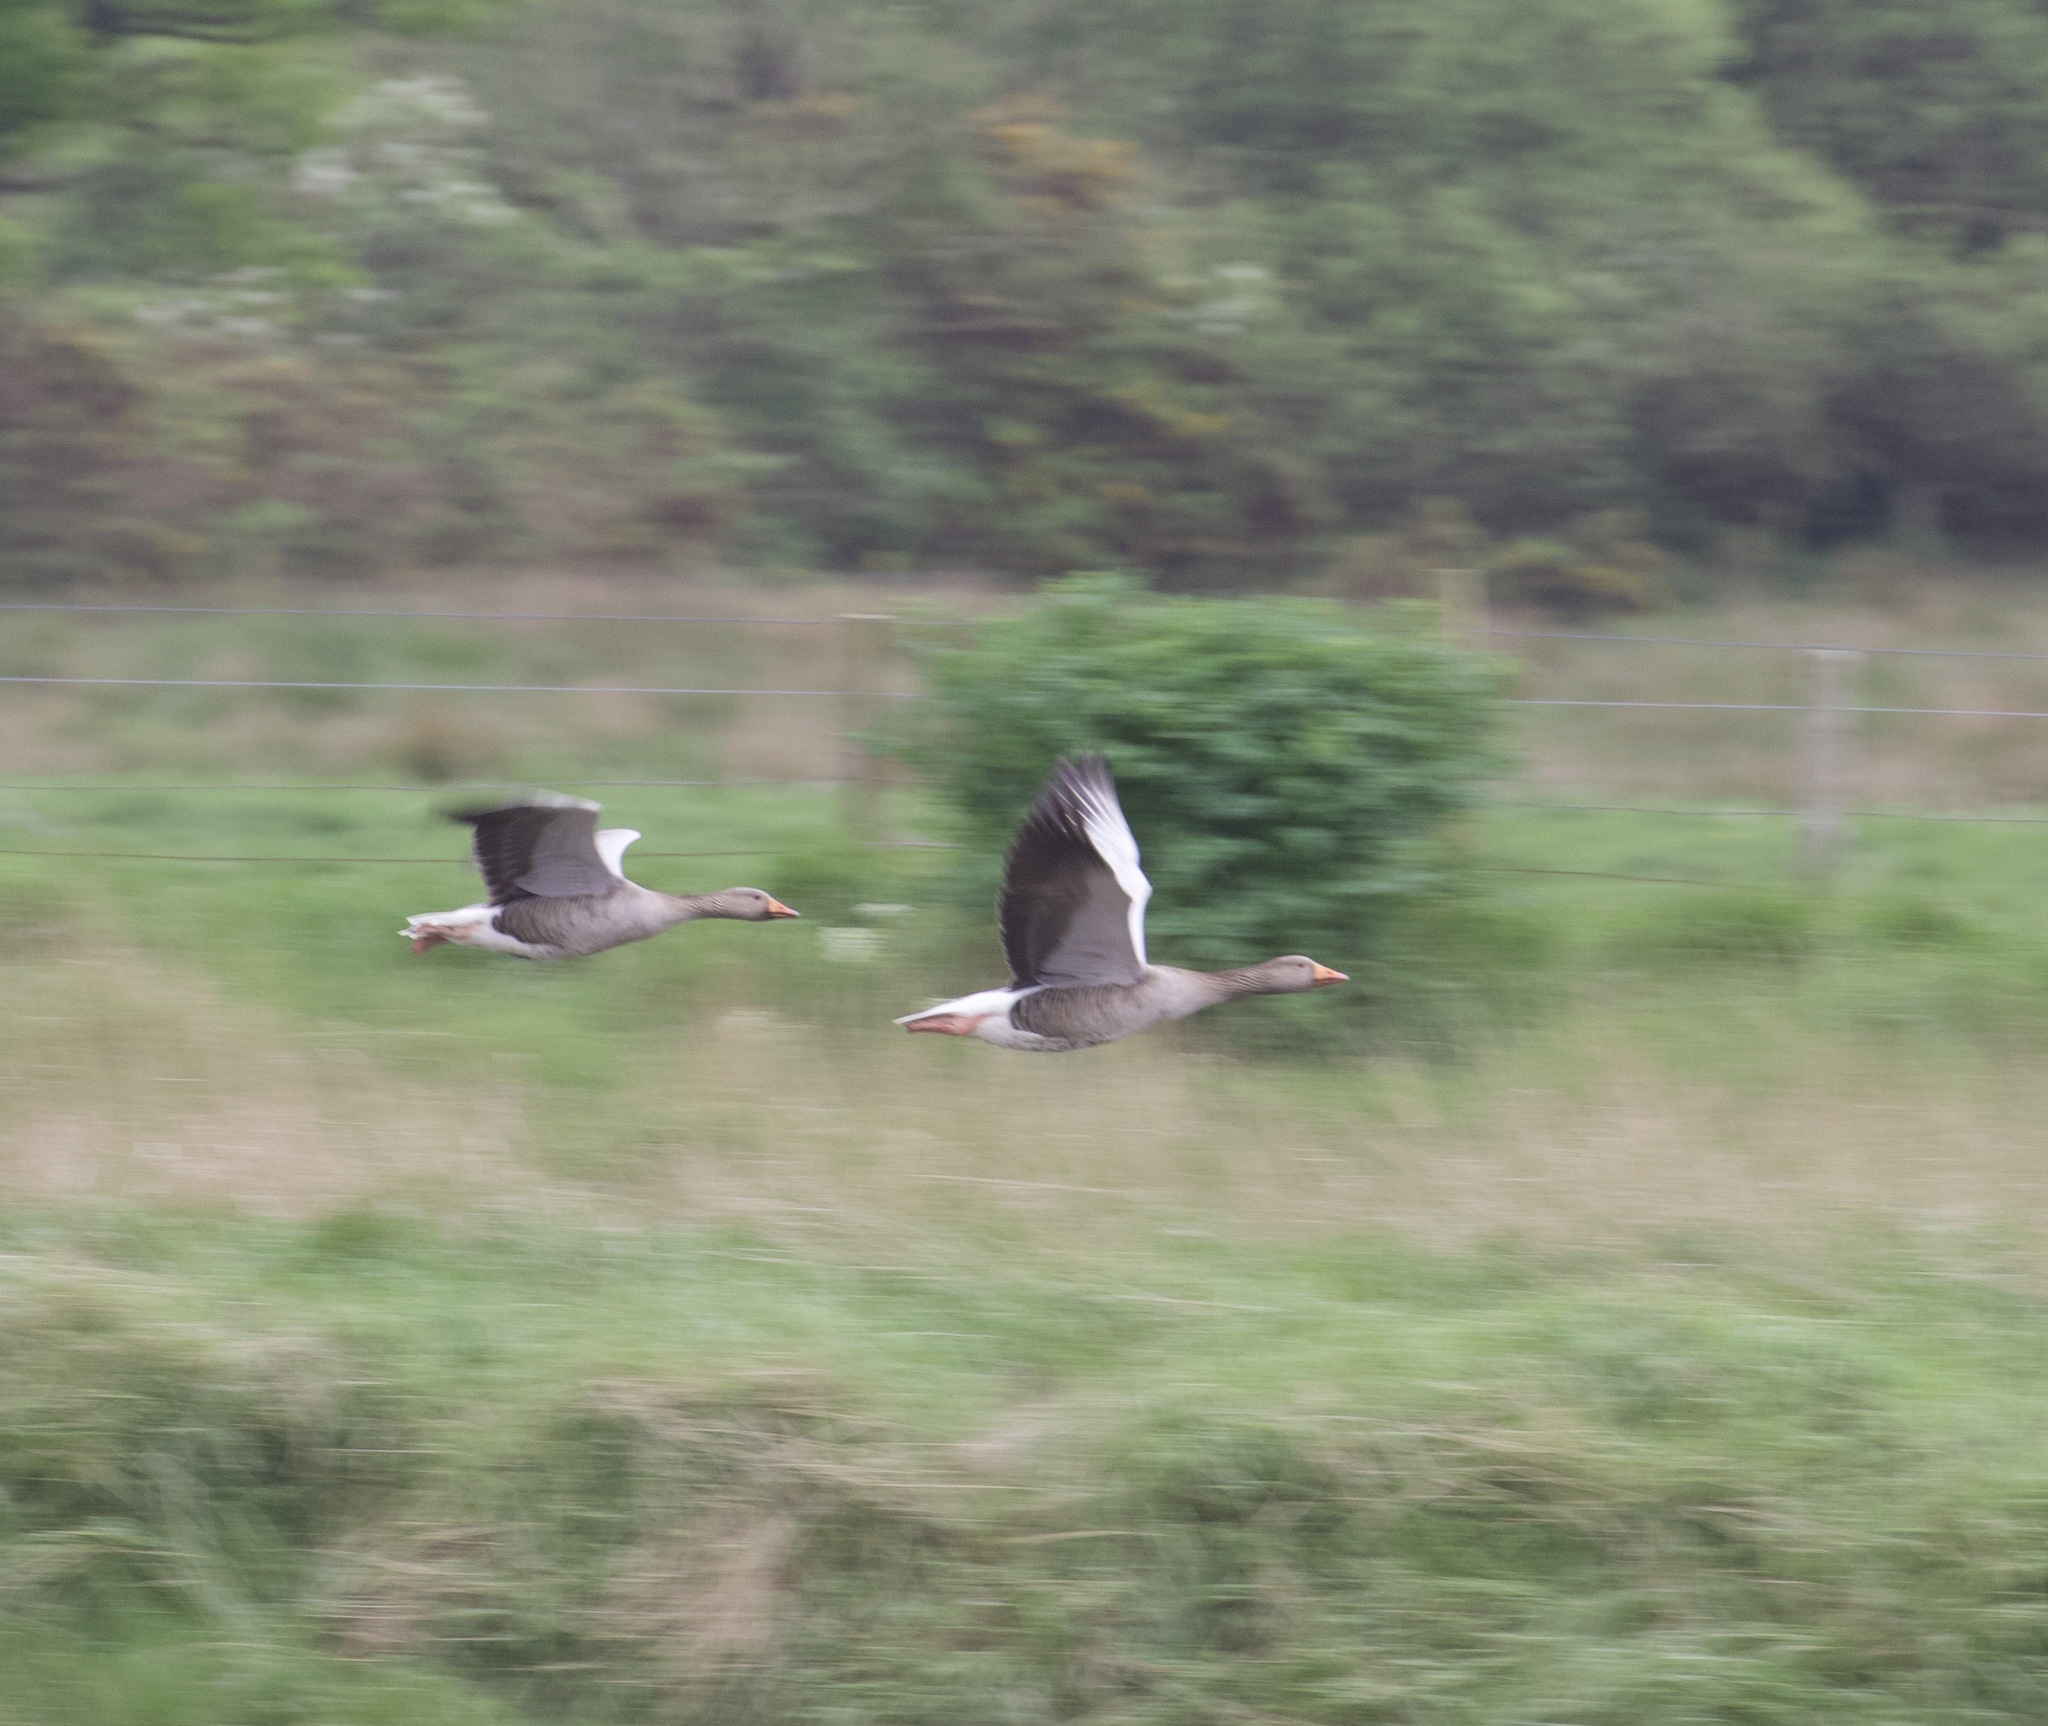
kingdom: Animalia
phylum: Chordata
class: Aves
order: Anseriformes
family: Anatidae
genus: Anser
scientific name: Anser anser
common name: Greylag goose
